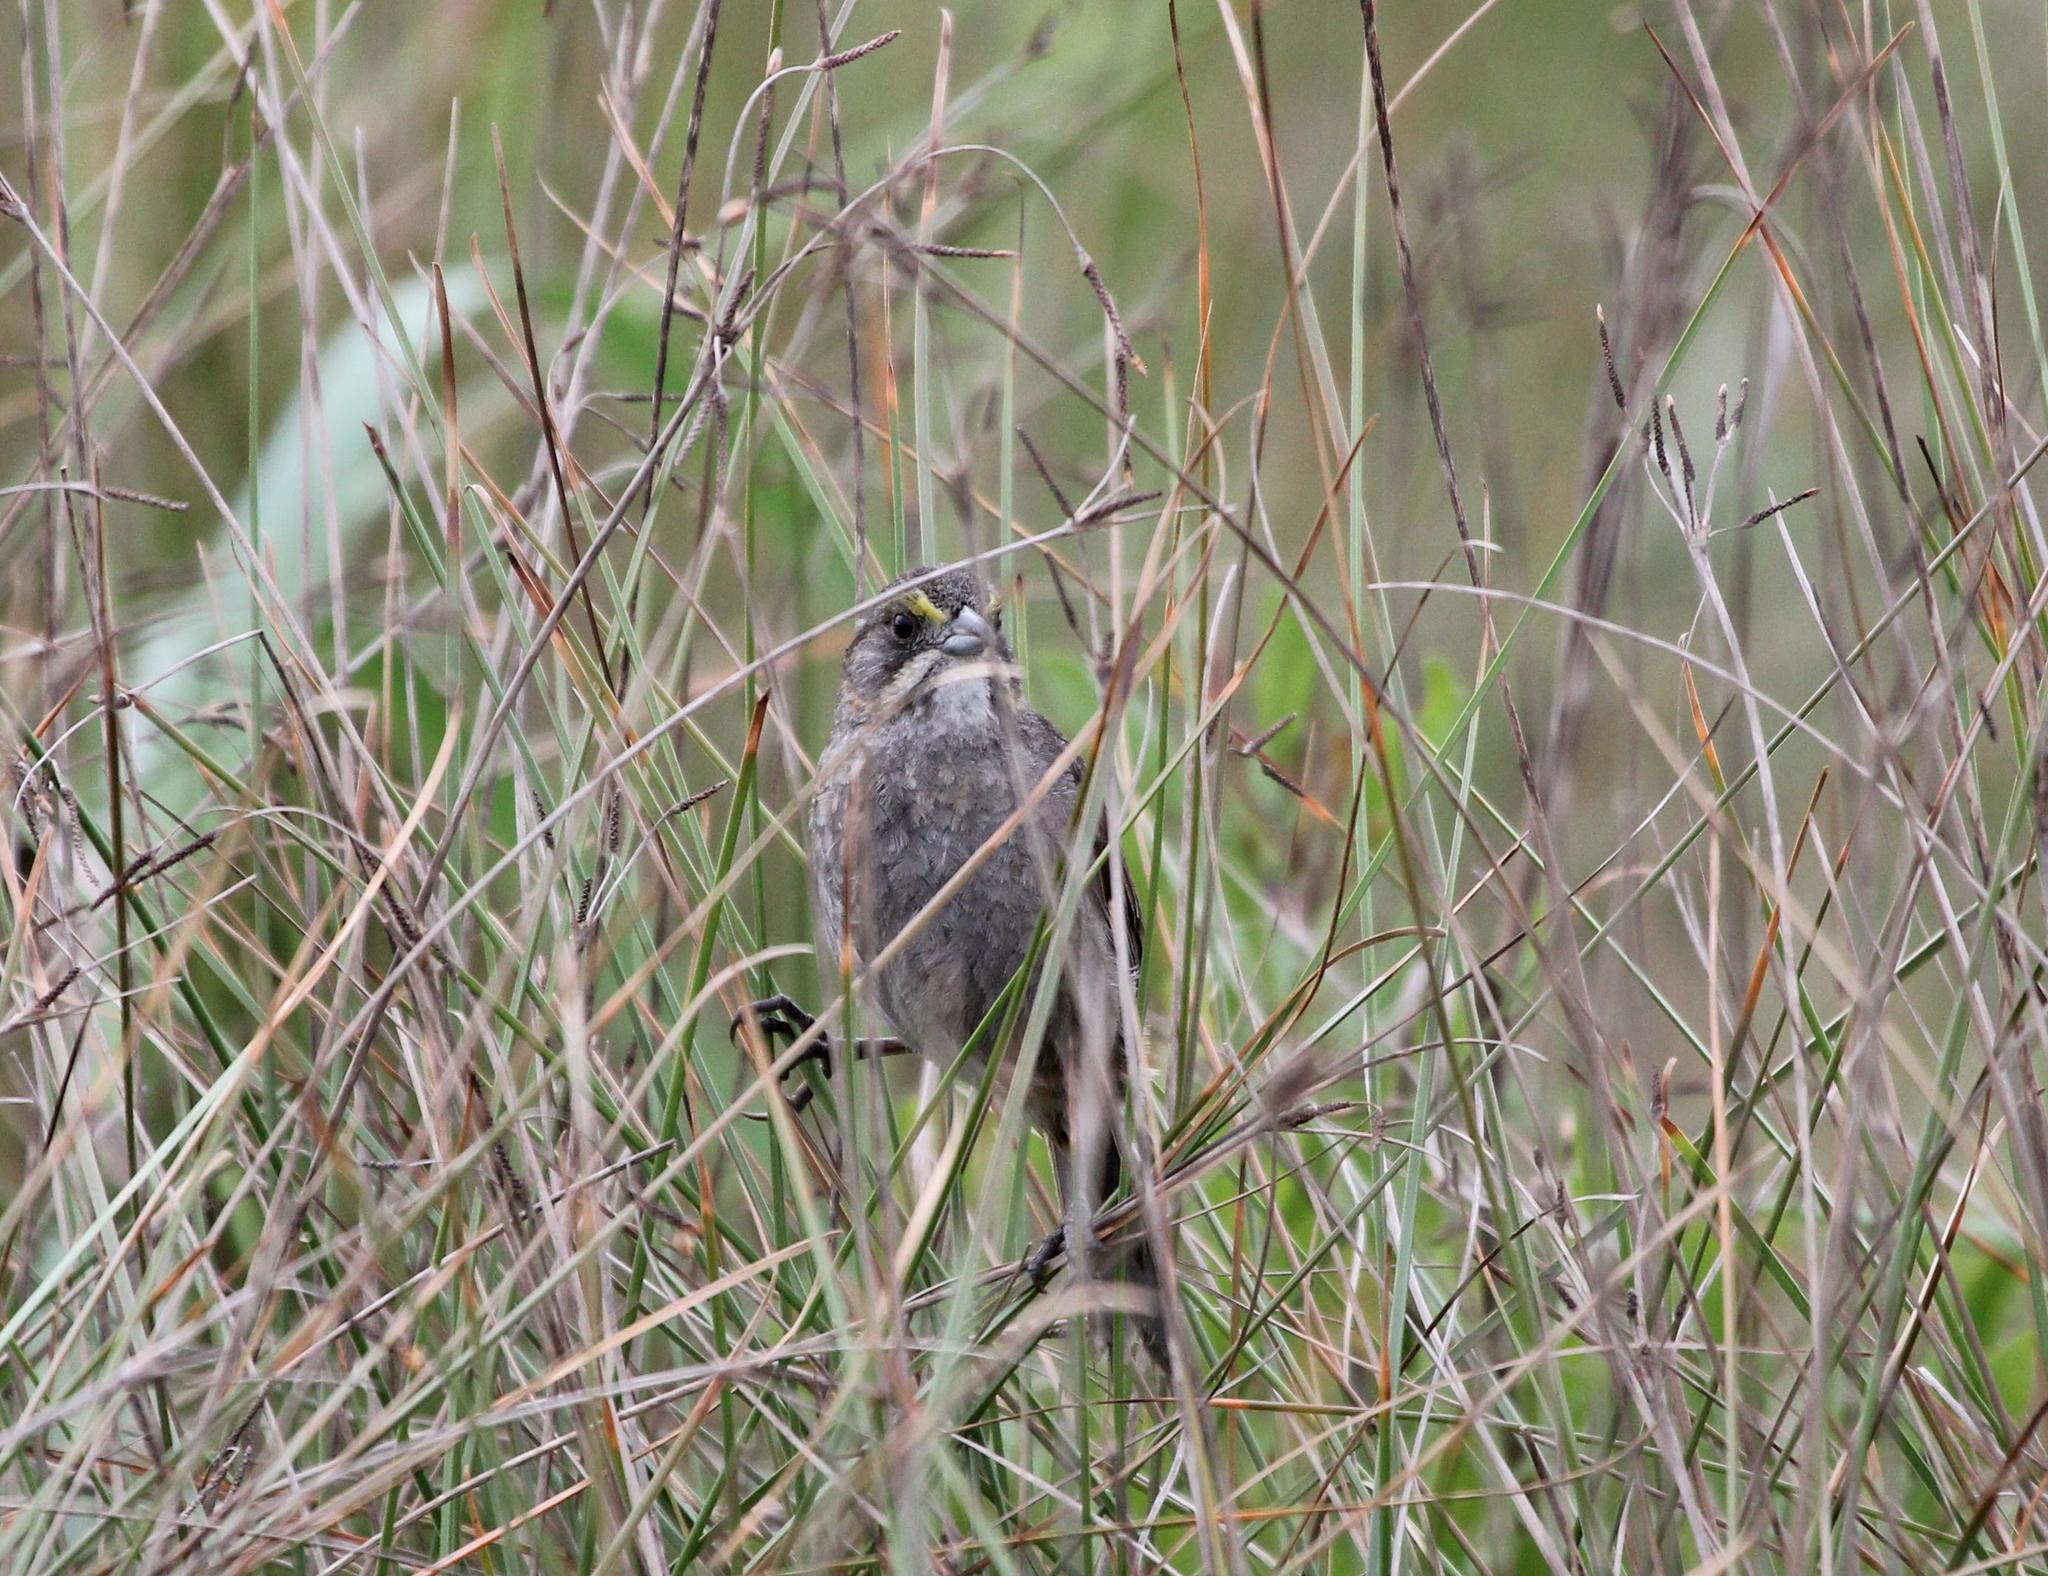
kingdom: Animalia
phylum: Chordata
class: Aves
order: Passeriformes
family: Passerellidae
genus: Ammospiza
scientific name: Ammospiza maritima
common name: Seaside sparrow
